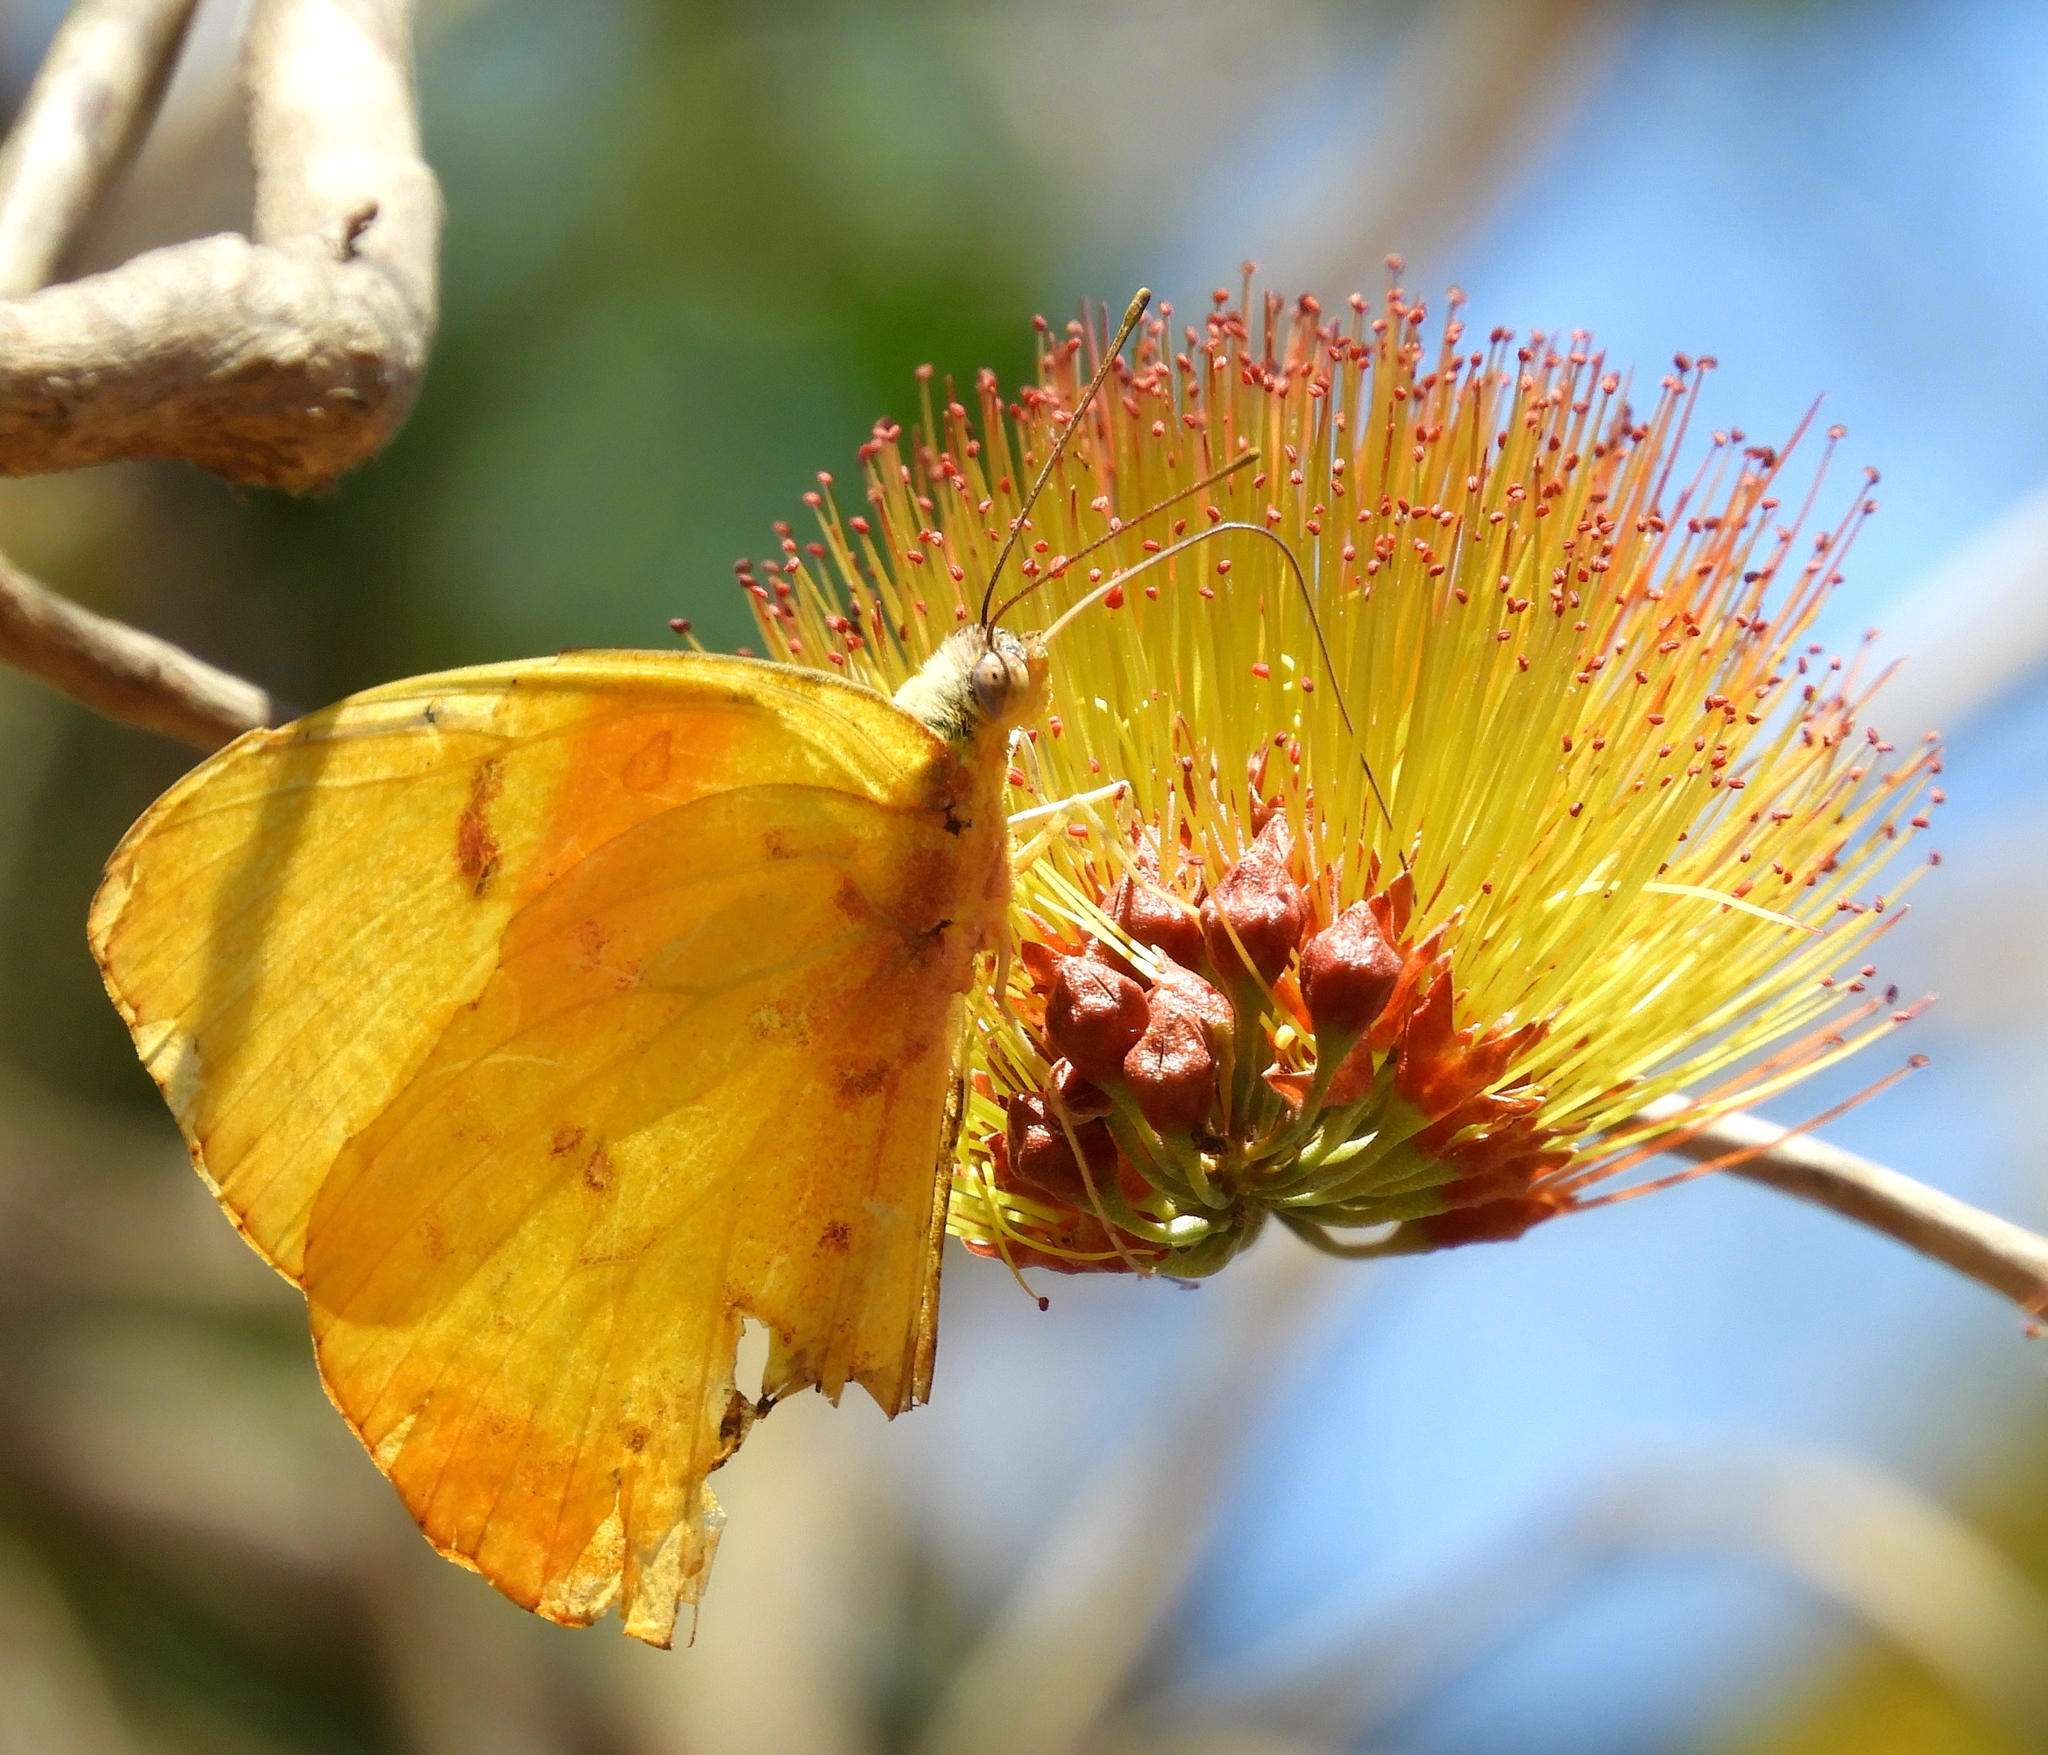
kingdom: Animalia
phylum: Arthropoda
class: Insecta
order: Lepidoptera
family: Pieridae
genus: Phoebis
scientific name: Phoebis philea
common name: Orange-barred giant sulphur
